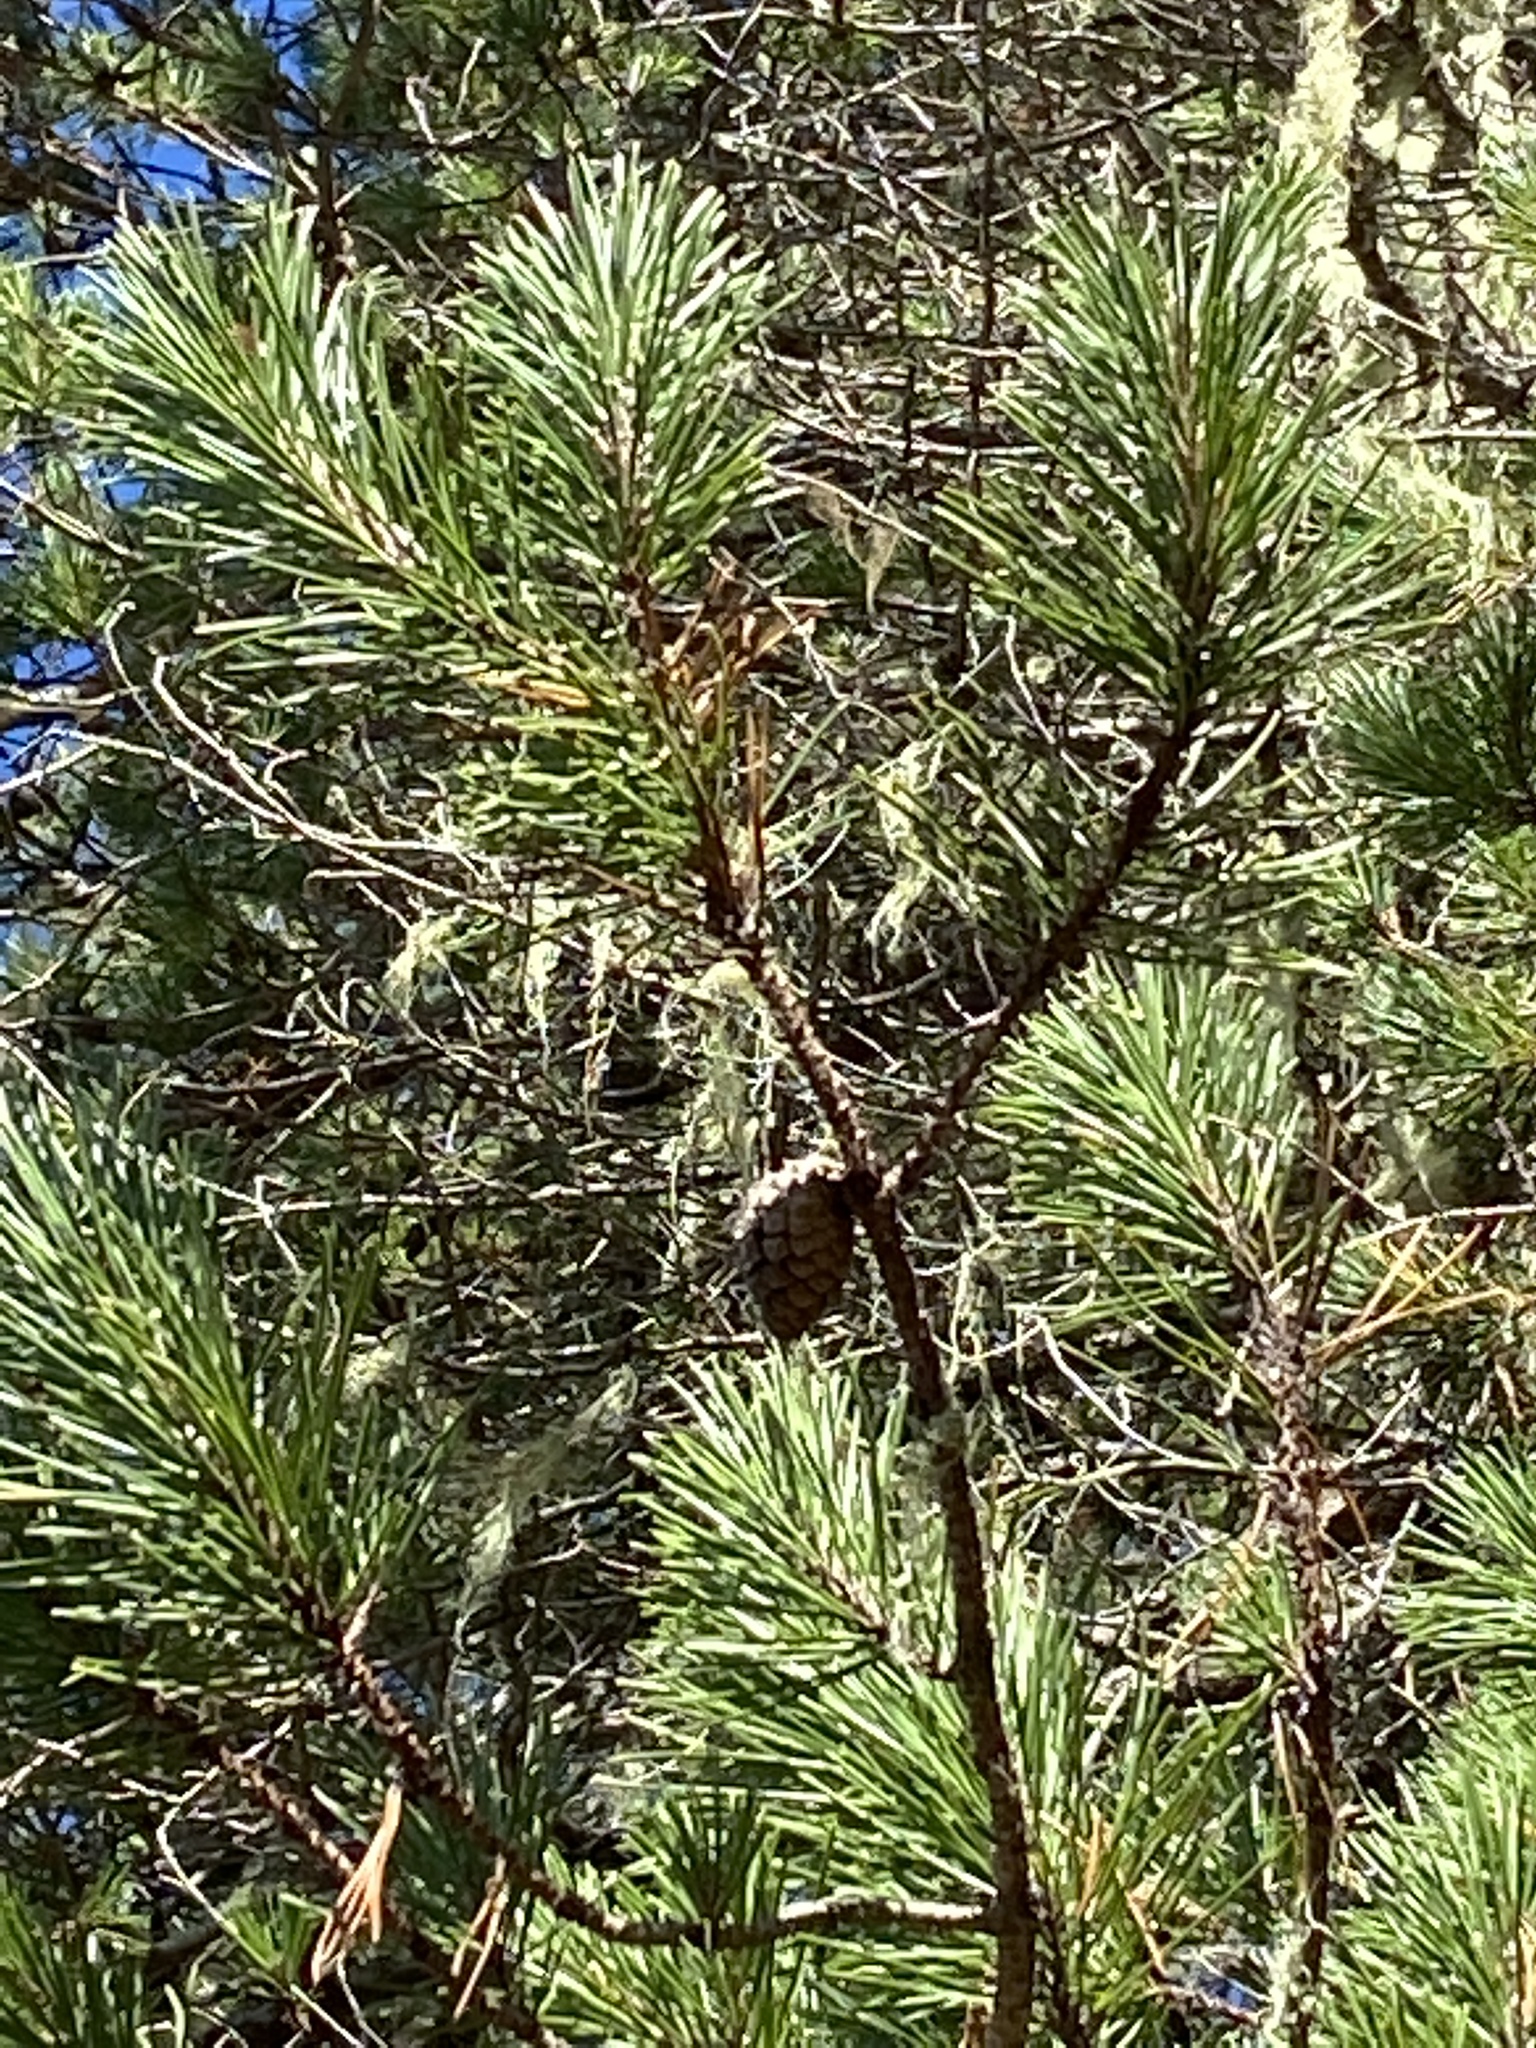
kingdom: Plantae
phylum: Tracheophyta
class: Pinopsida
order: Pinales
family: Pinaceae
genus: Pinus
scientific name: Pinus contorta
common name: Lodgepole pine
